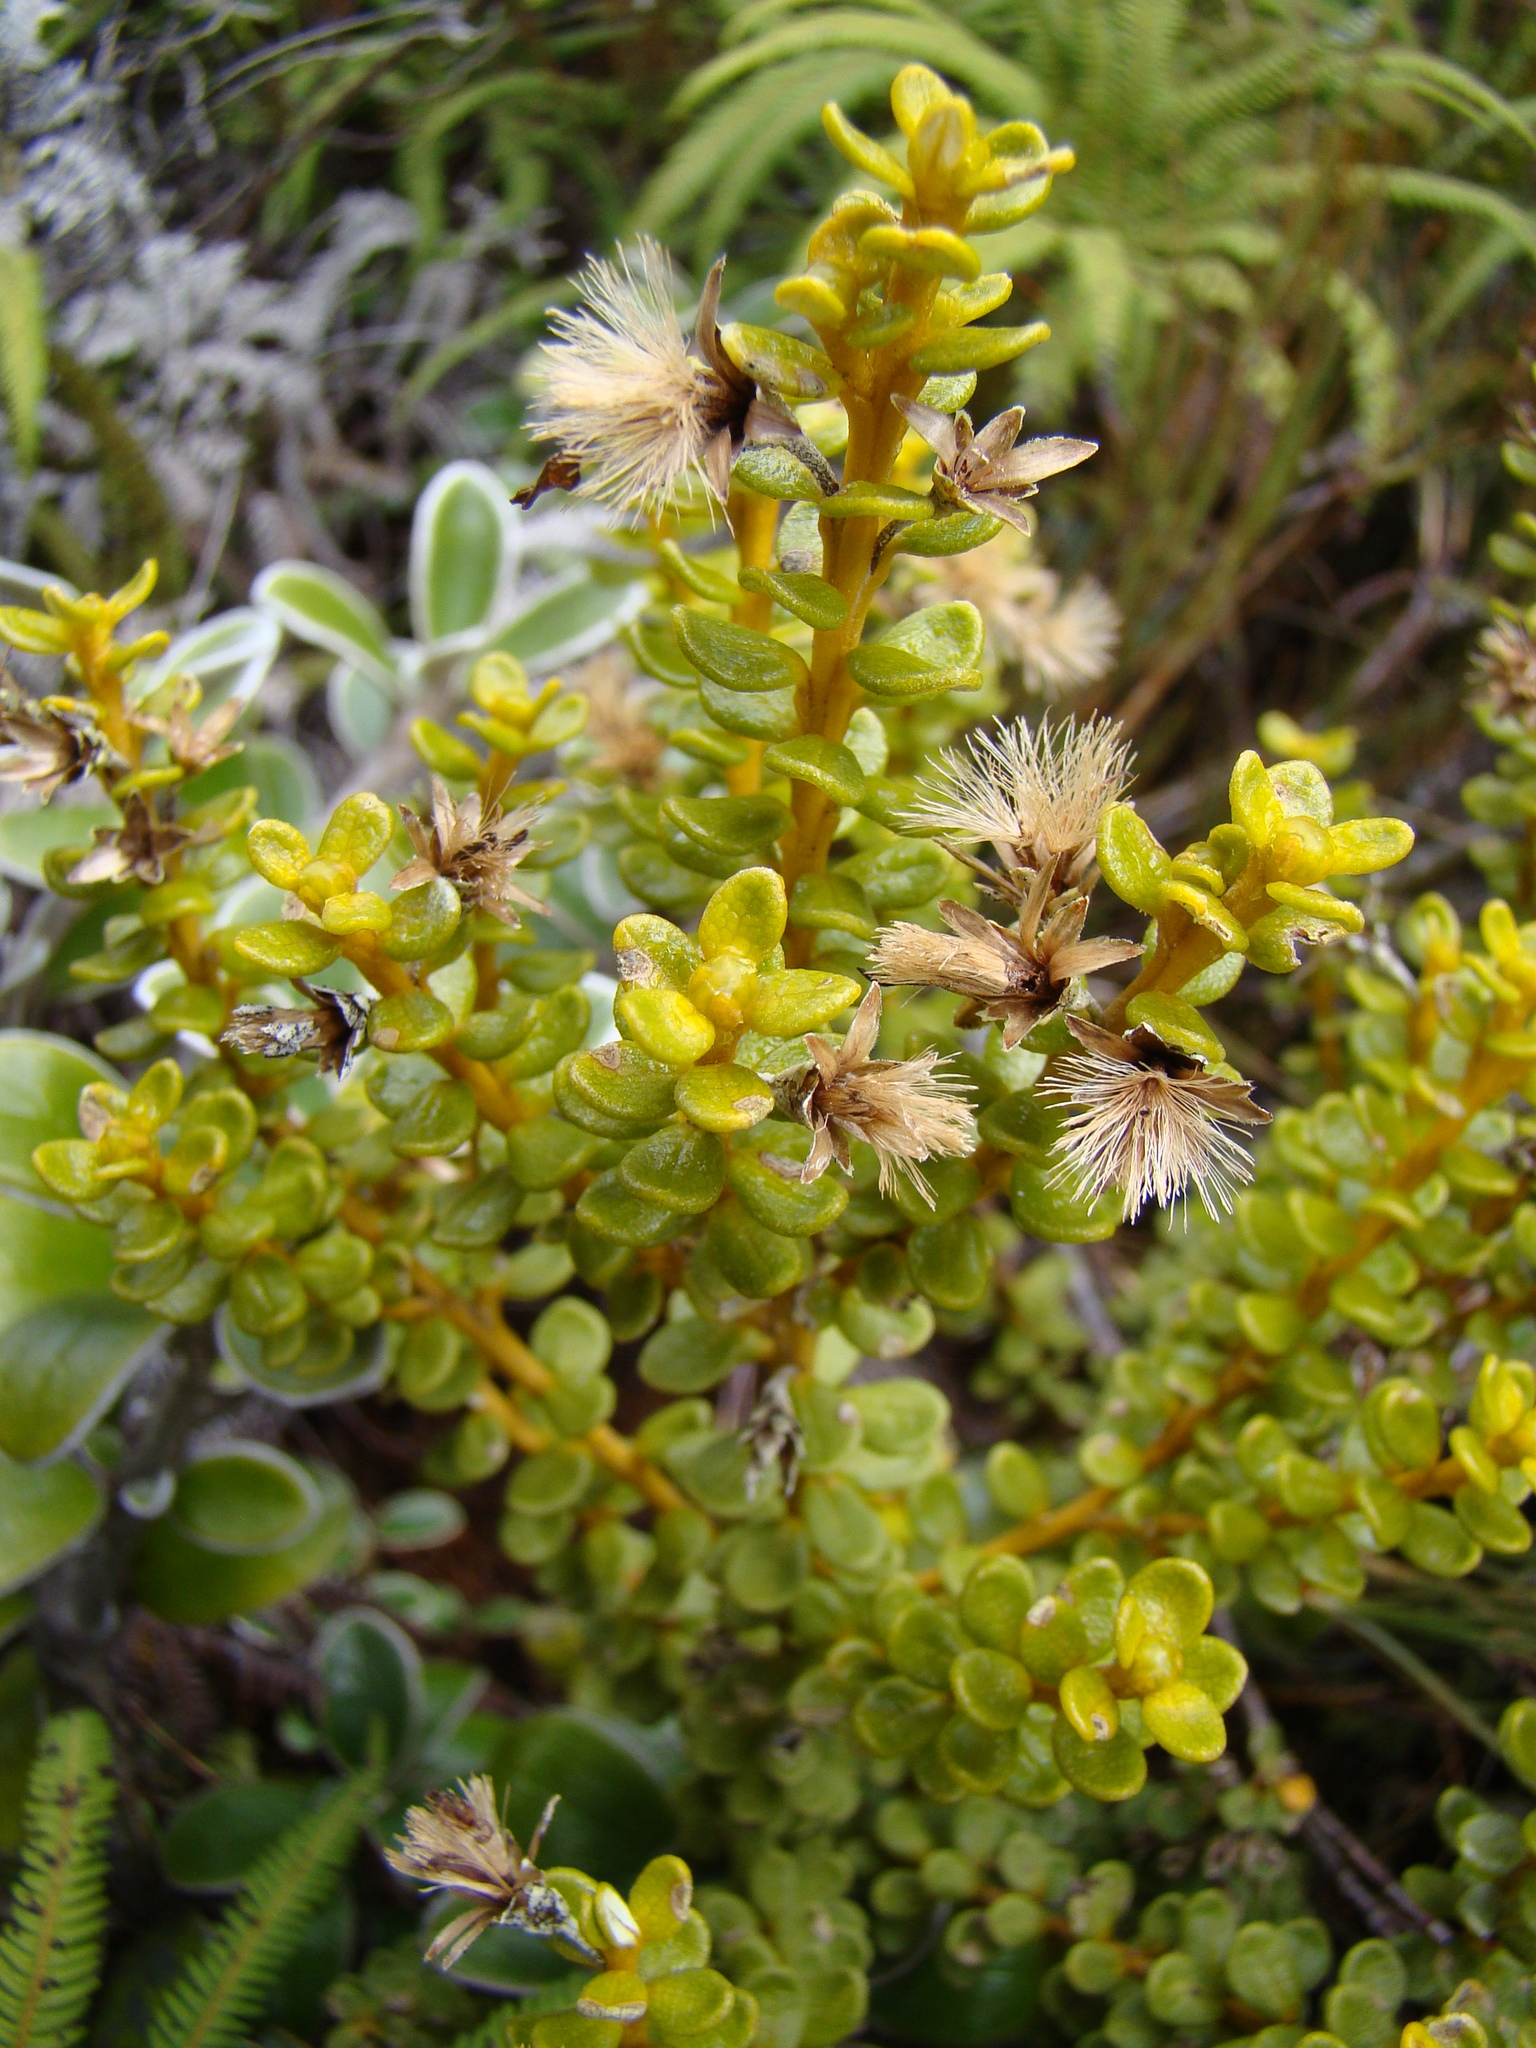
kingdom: Plantae
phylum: Tracheophyta
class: Magnoliopsida
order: Asterales
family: Asteraceae
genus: Olearia
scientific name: Olearia nummularifolia
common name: Sticky daisybush
